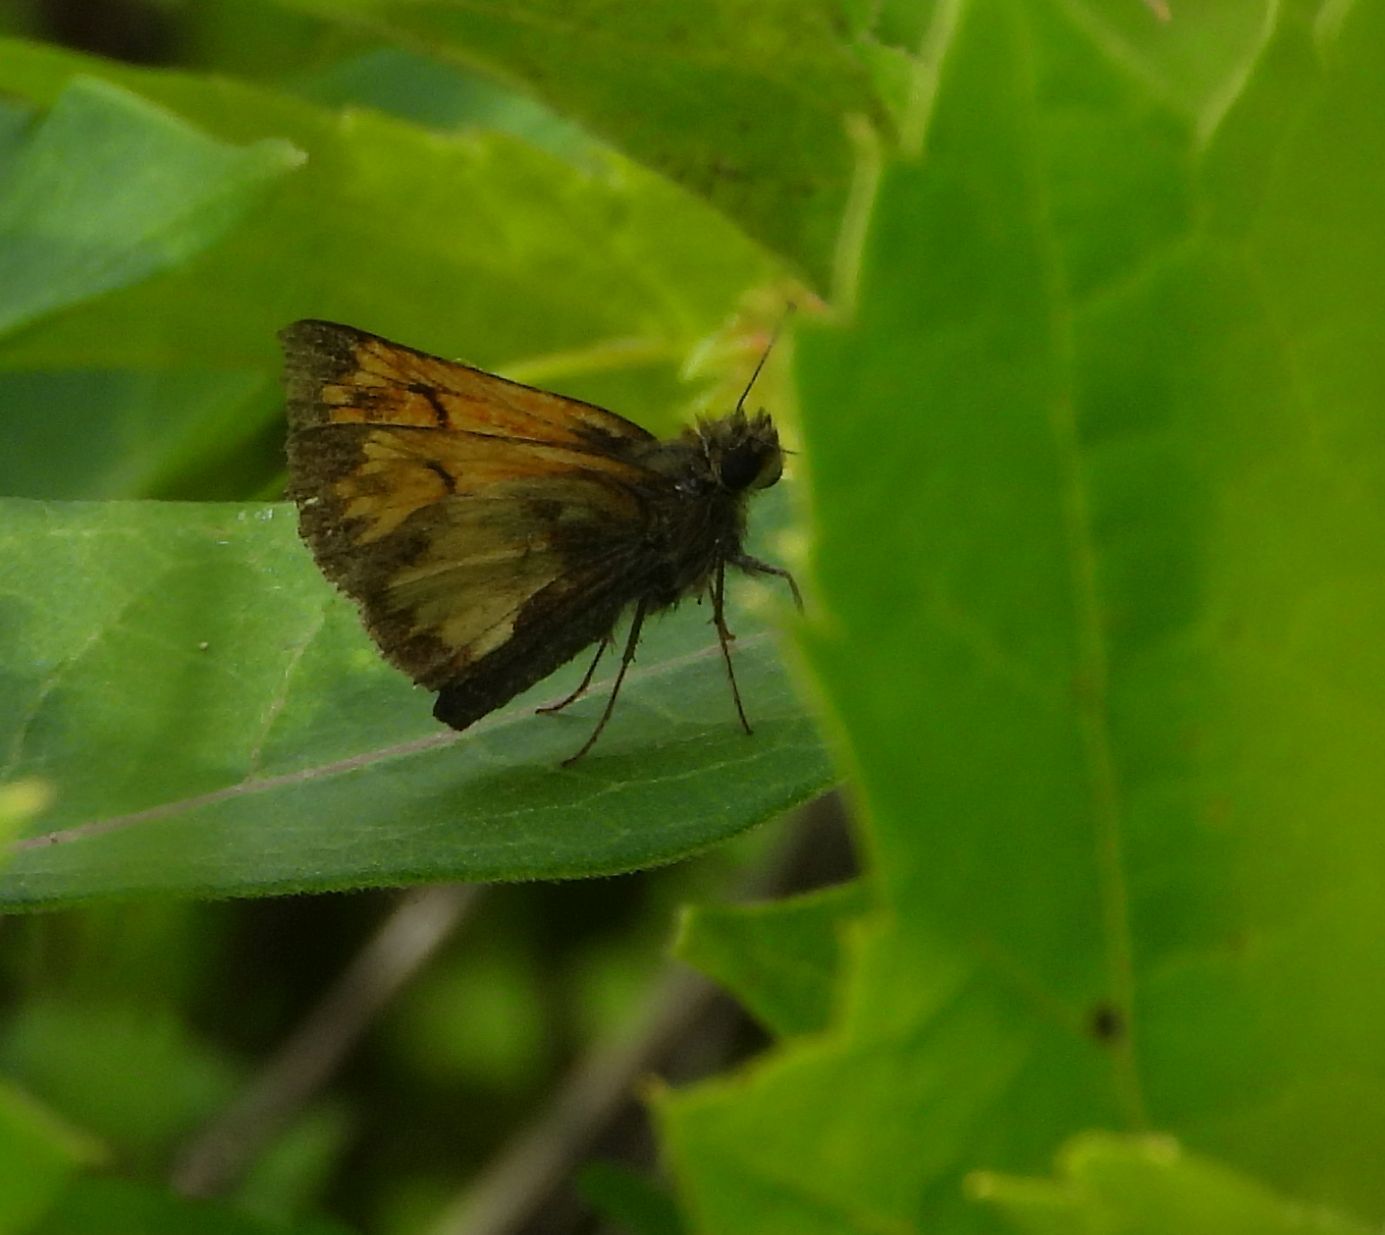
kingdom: Animalia
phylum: Arthropoda
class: Insecta
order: Lepidoptera
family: Hesperiidae
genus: Lon
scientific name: Lon hobomok
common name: Hobomok skipper
